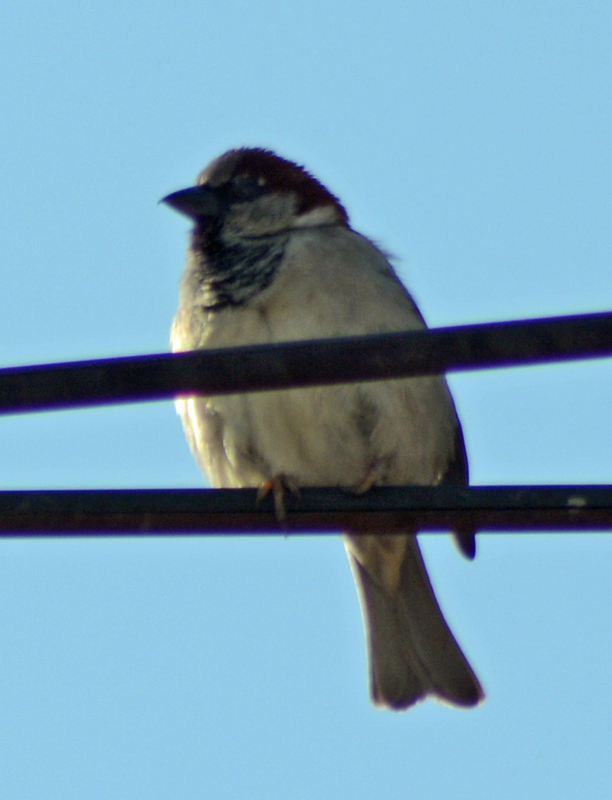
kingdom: Animalia
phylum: Chordata
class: Aves
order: Passeriformes
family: Passeridae
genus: Passer
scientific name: Passer domesticus
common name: House sparrow
